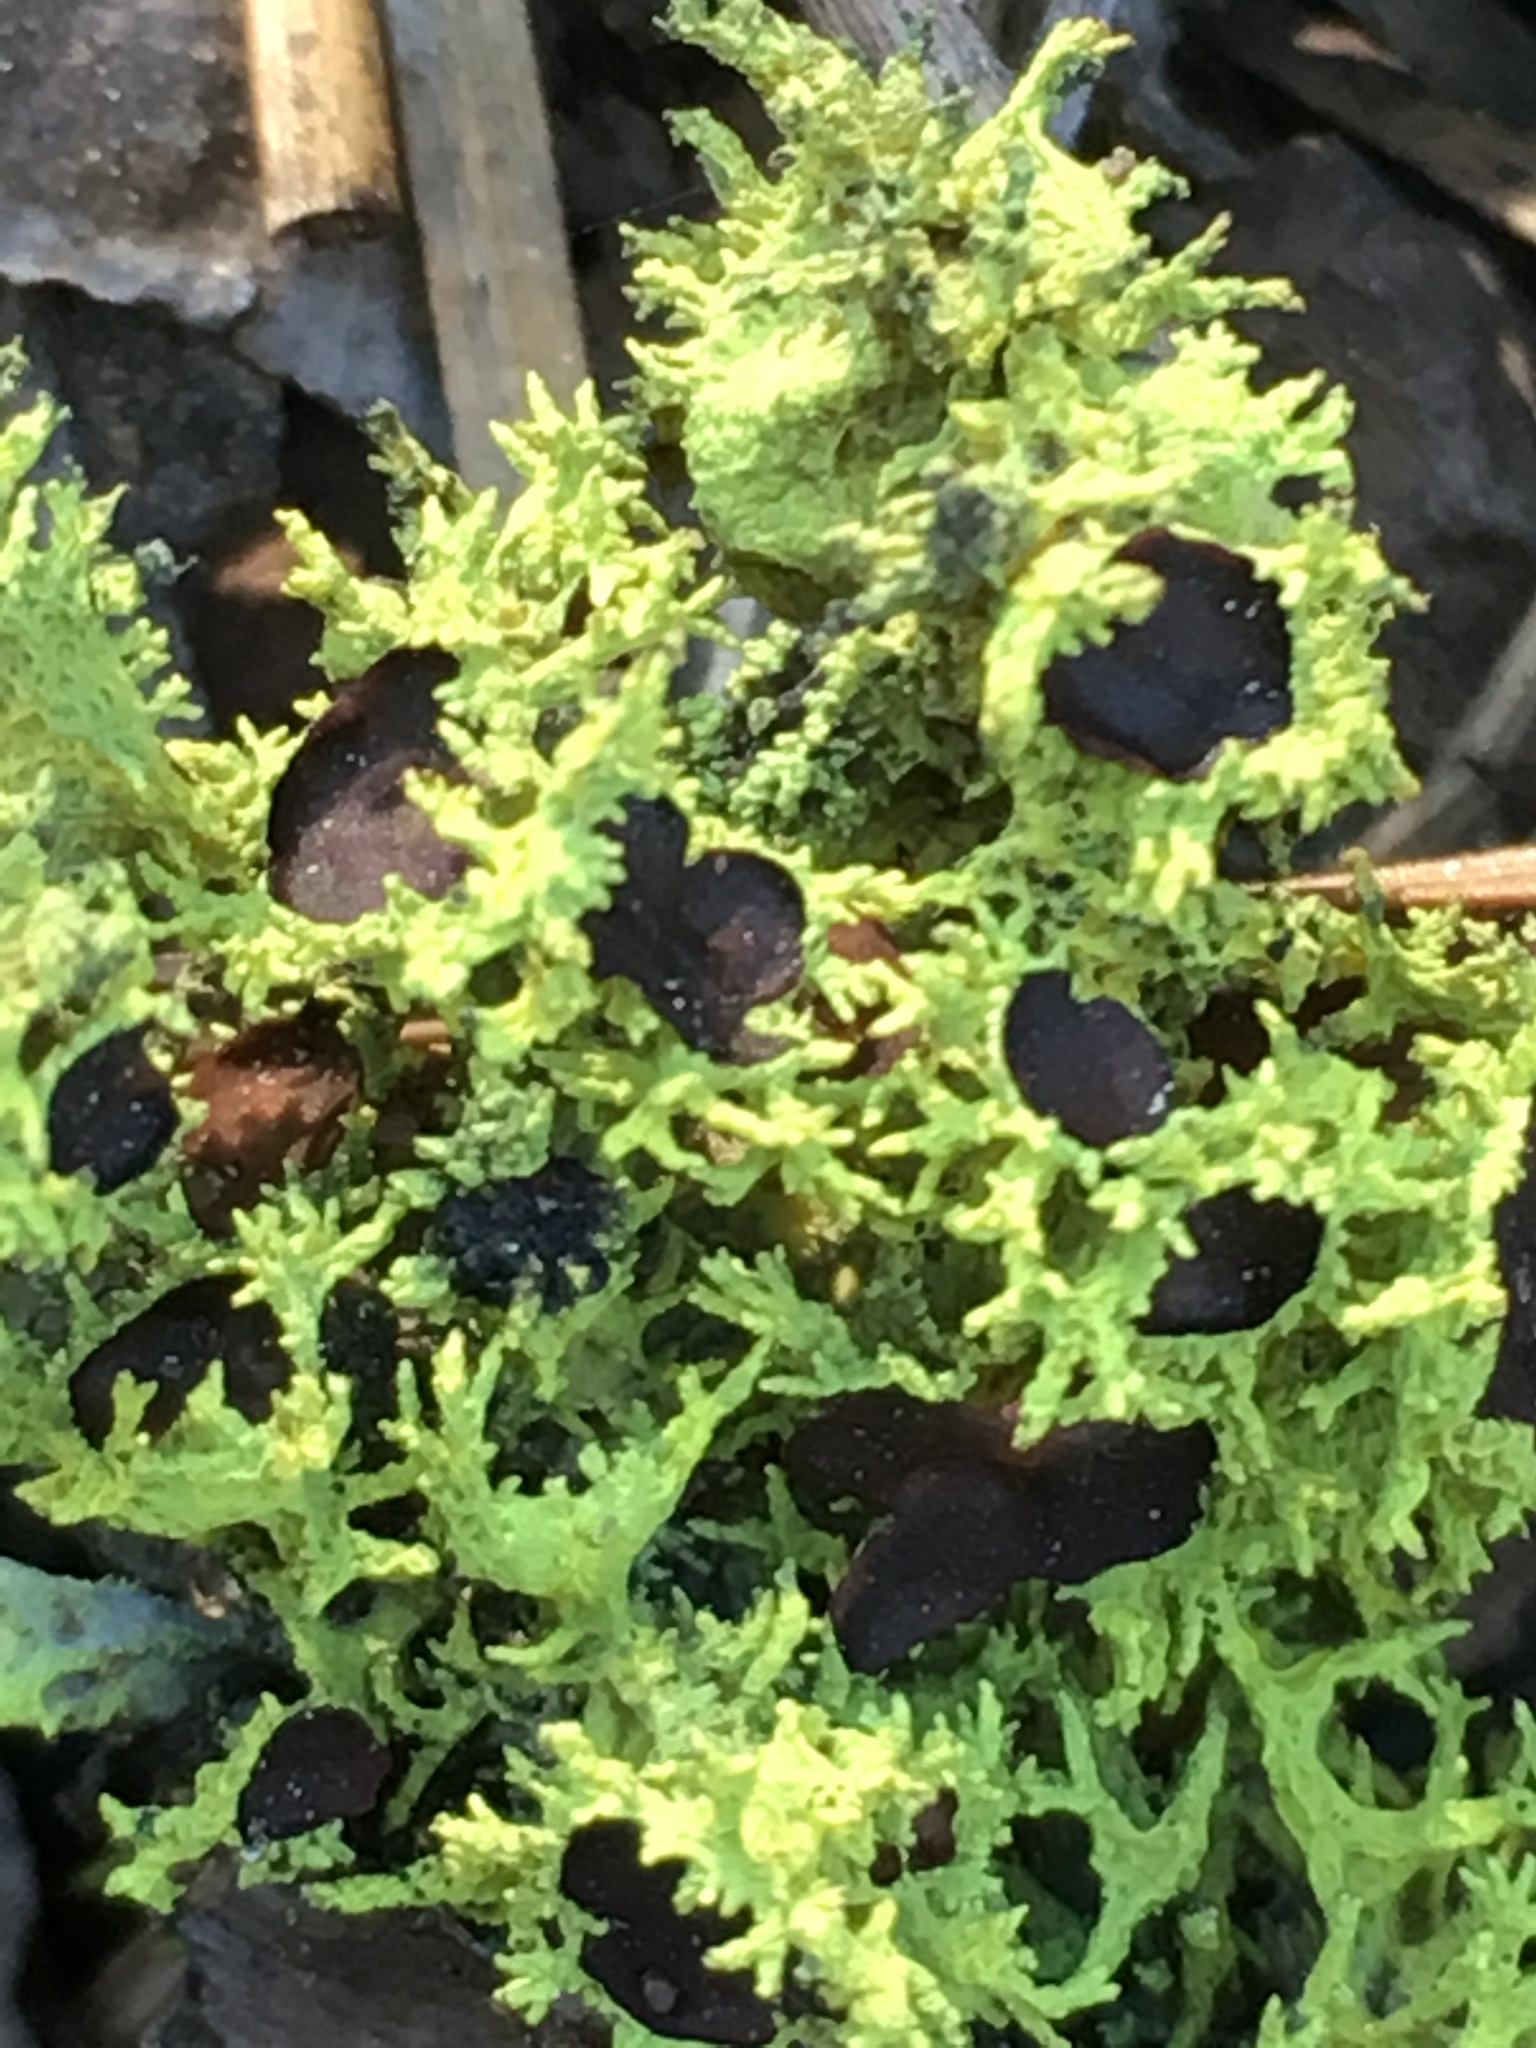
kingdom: Fungi
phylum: Ascomycota
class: Lecanoromycetes
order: Lecanorales
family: Parmeliaceae
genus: Letharia
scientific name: Letharia columbiana
